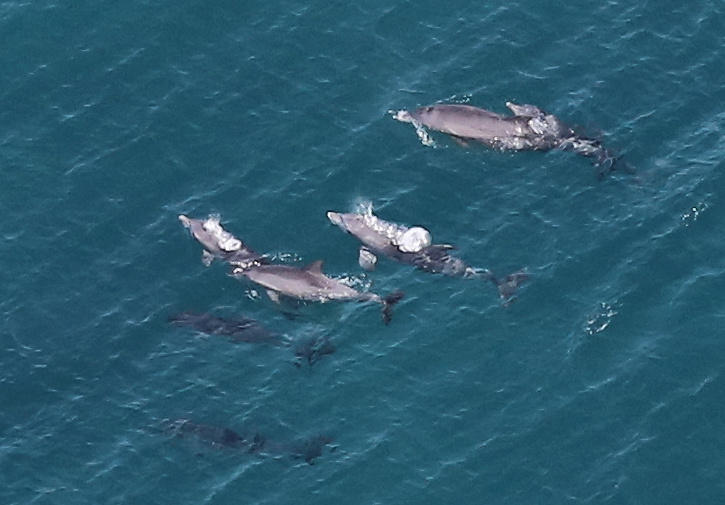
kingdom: Animalia
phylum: Chordata
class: Mammalia
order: Cetacea
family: Delphinidae
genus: Tursiops
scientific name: Tursiops aduncus
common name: Indo-pacific bottlenose dolphin
